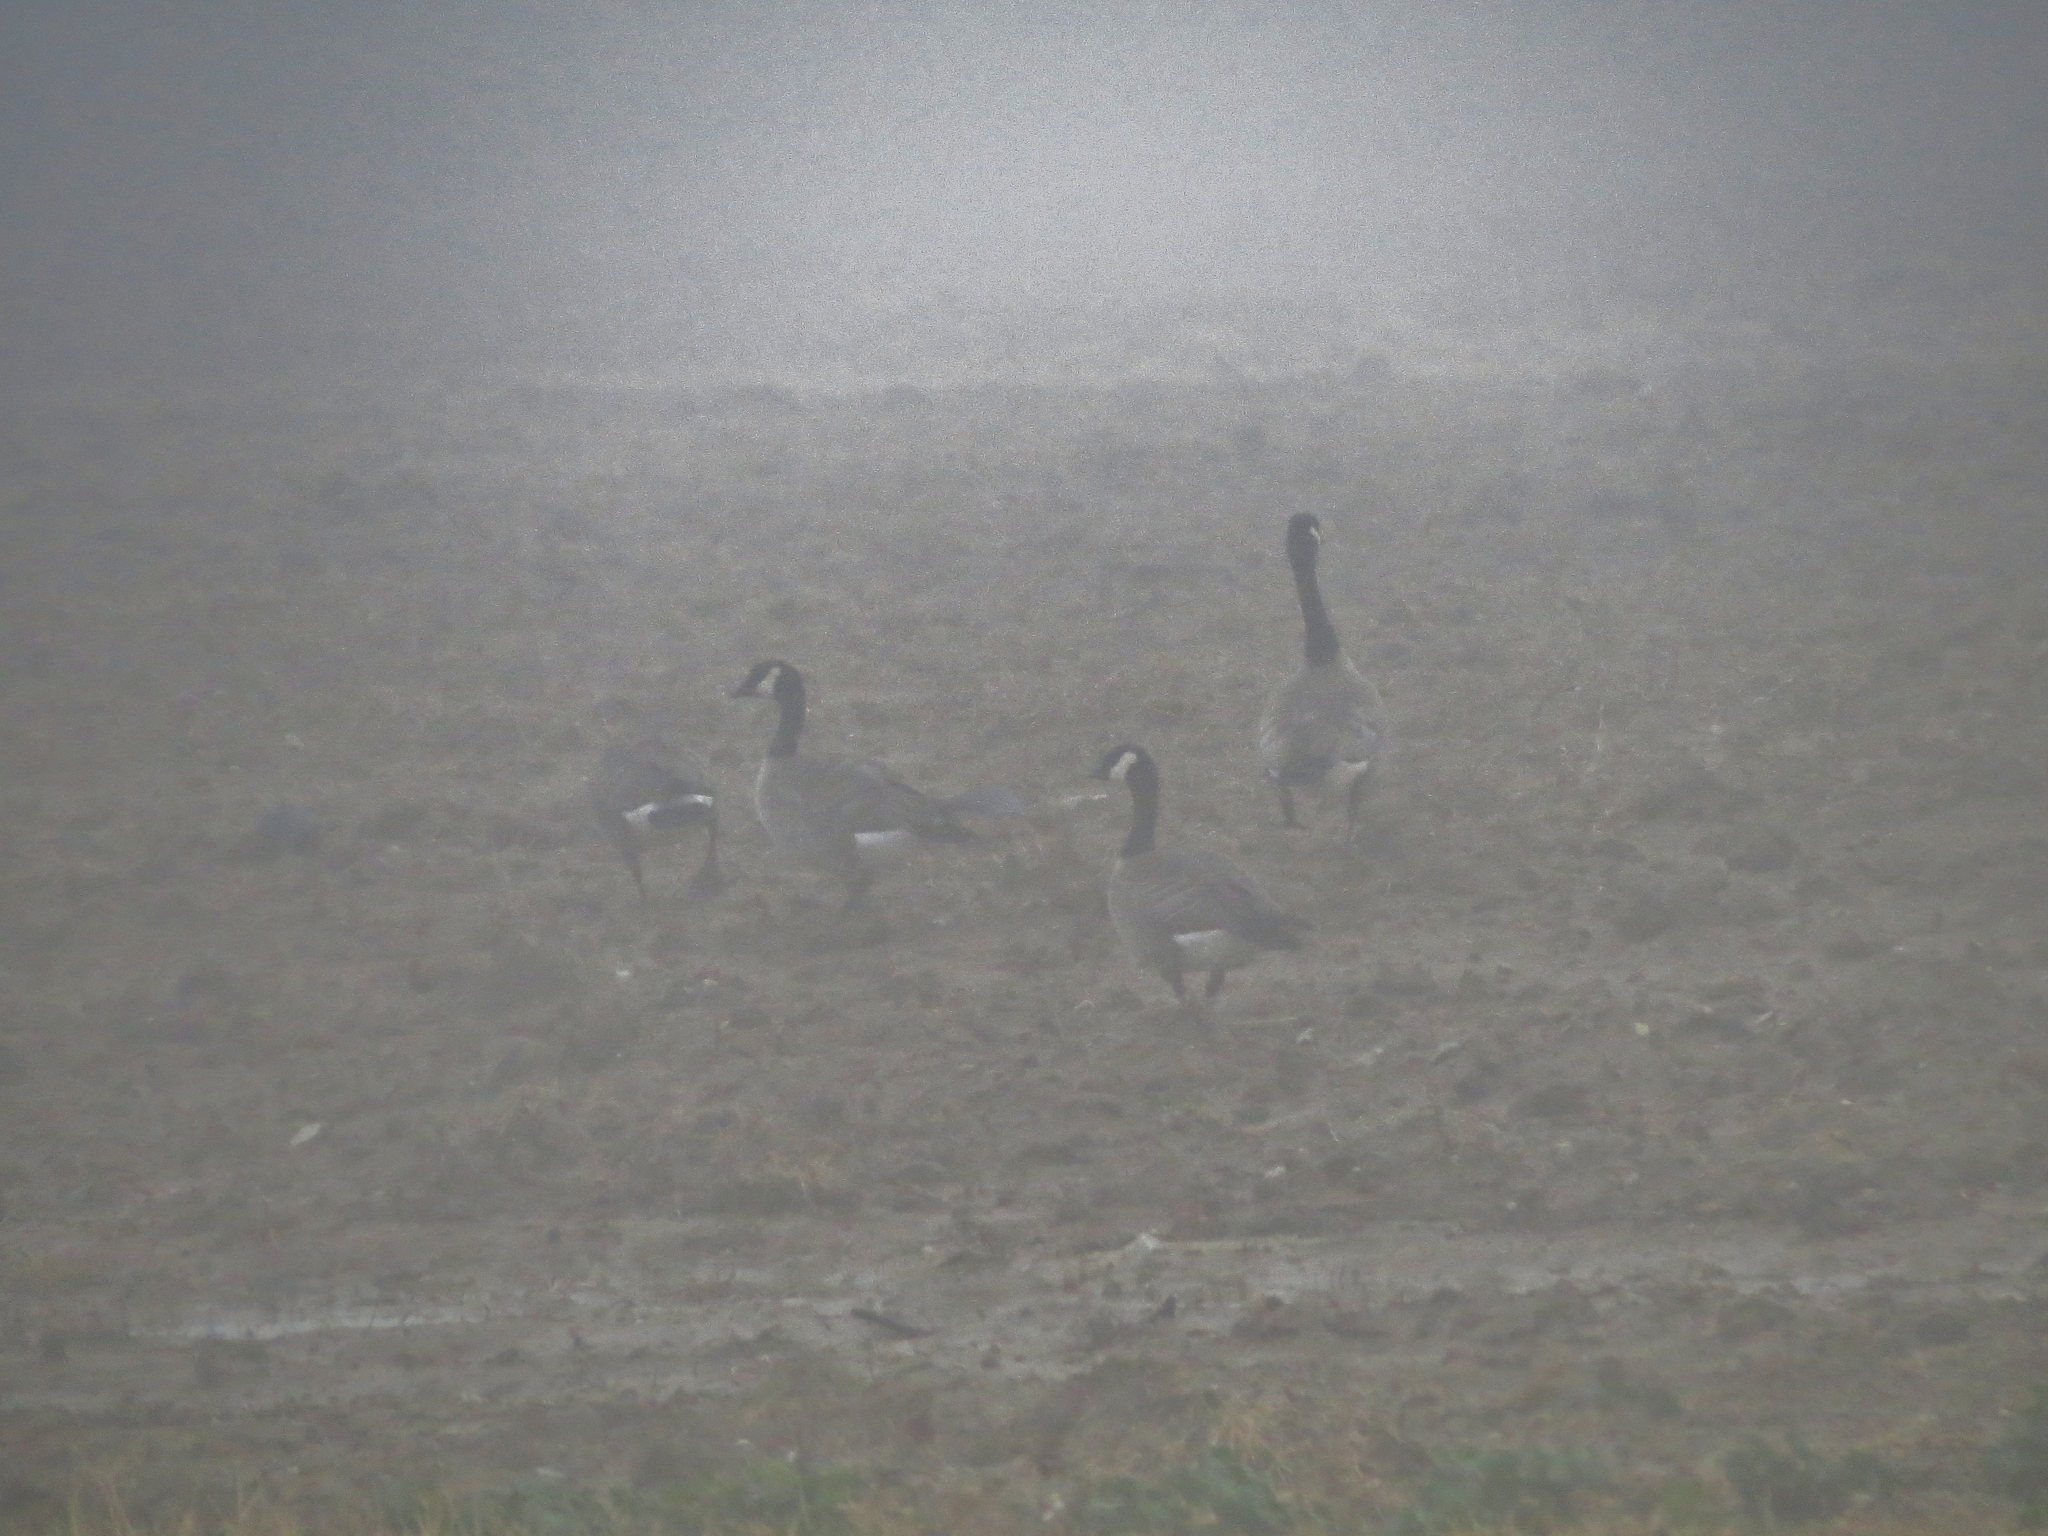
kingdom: Animalia
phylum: Chordata
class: Aves
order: Anseriformes
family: Anatidae
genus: Branta
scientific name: Branta canadensis
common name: Canada goose
